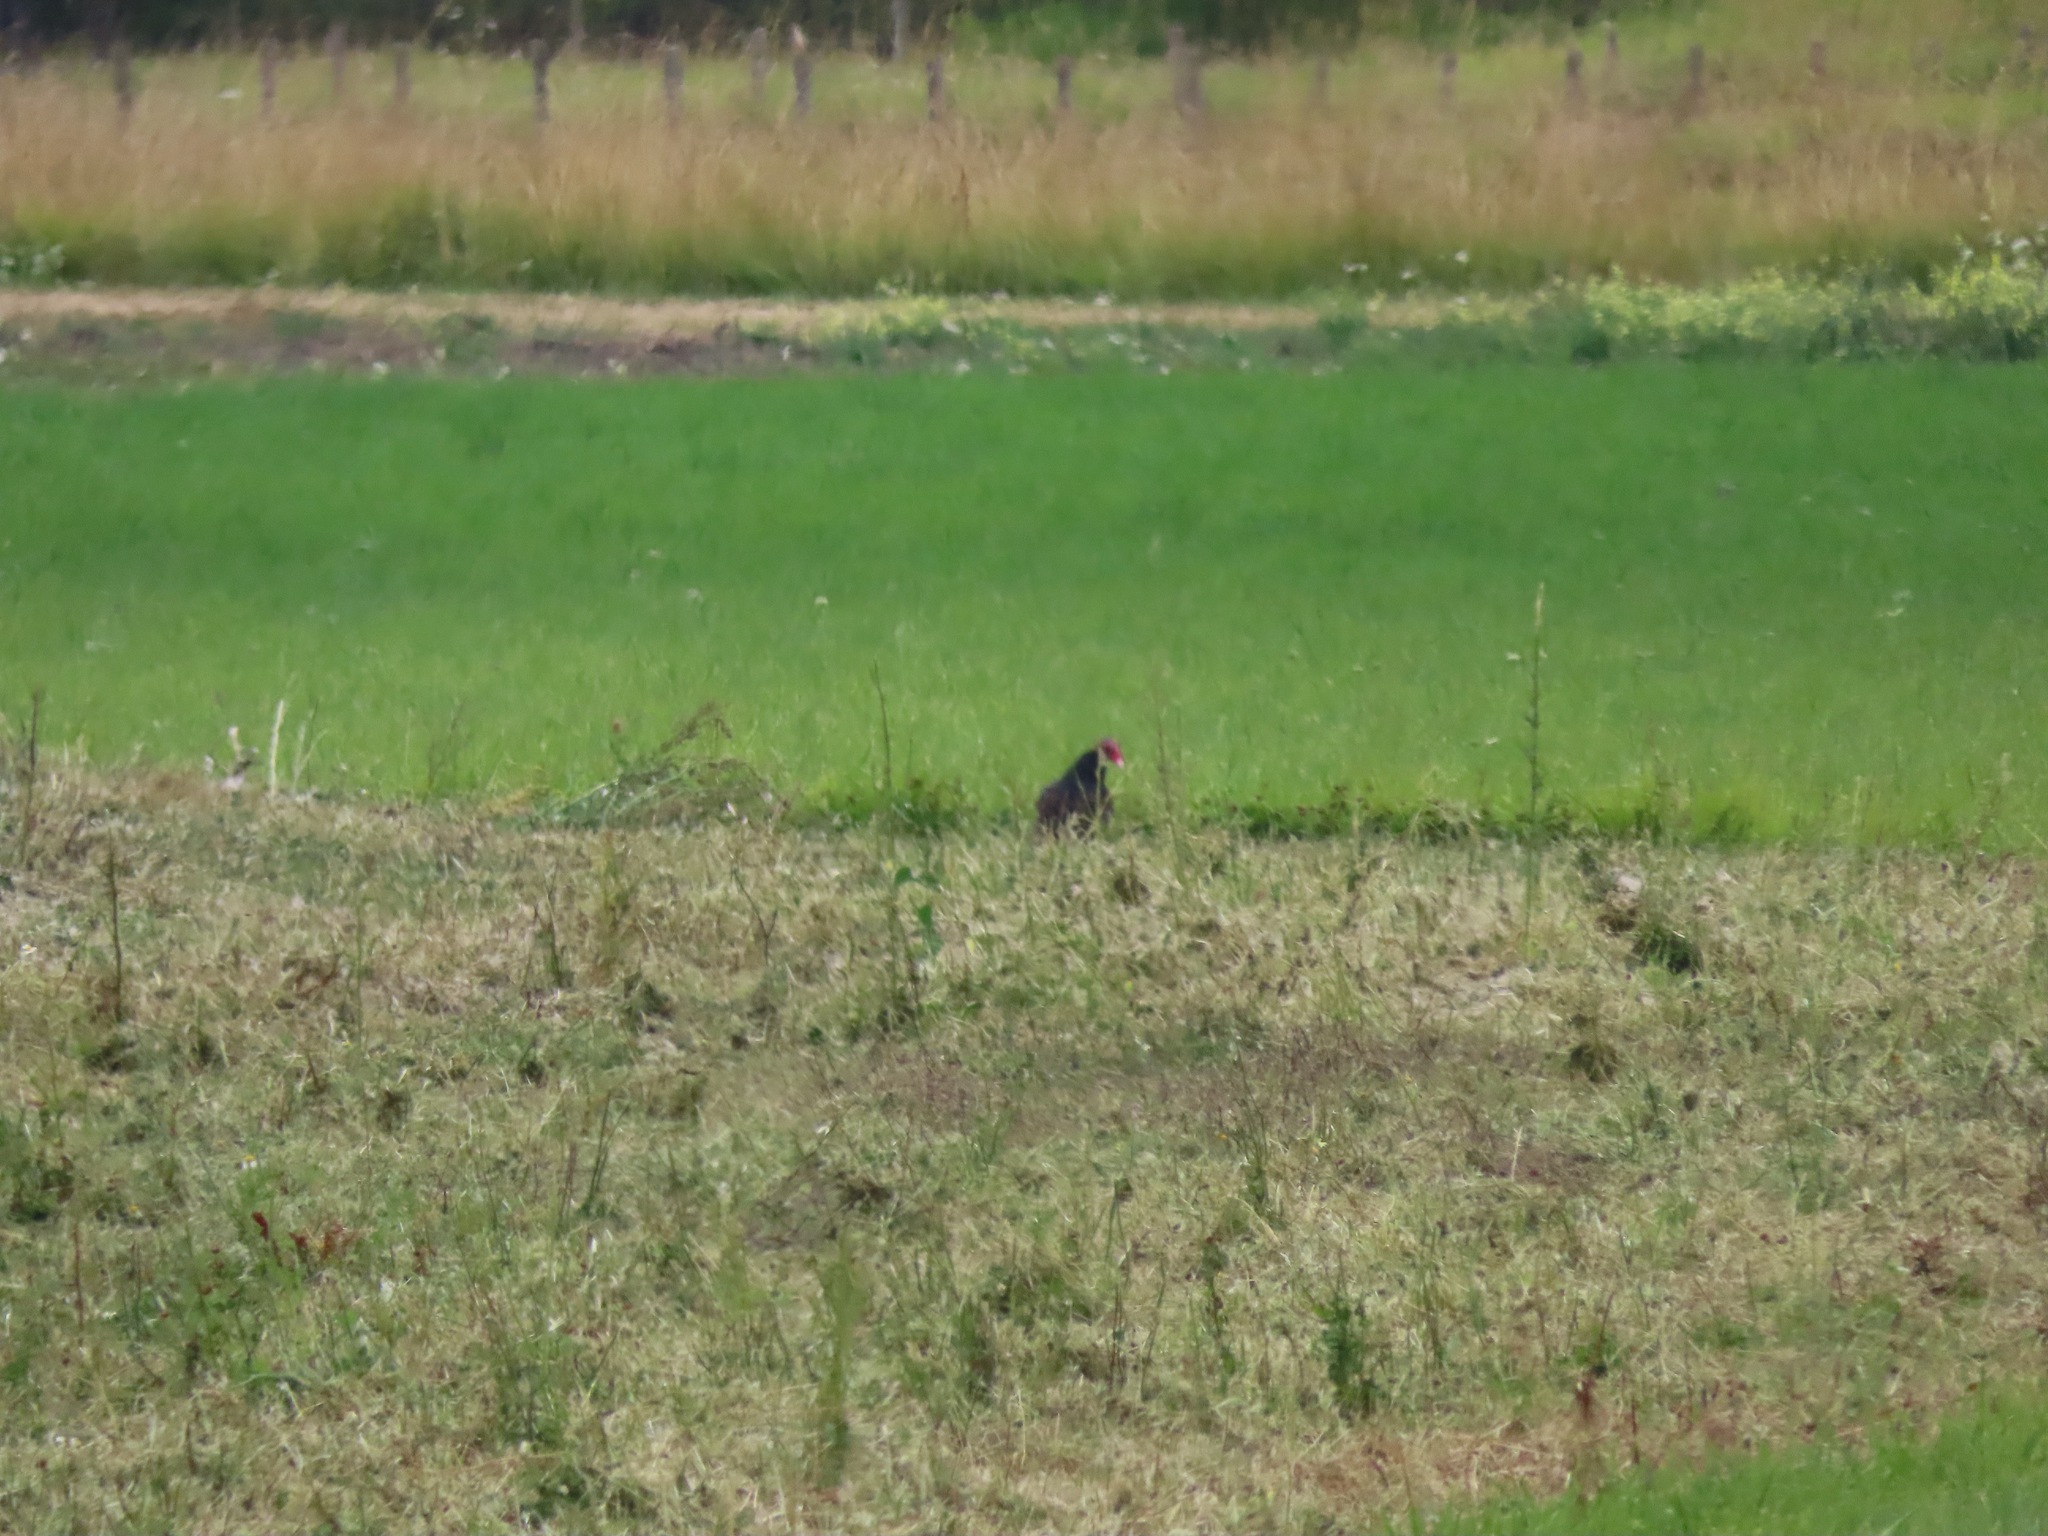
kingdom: Animalia
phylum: Chordata
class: Aves
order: Accipitriformes
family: Cathartidae
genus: Cathartes
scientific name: Cathartes aura
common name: Turkey vulture
